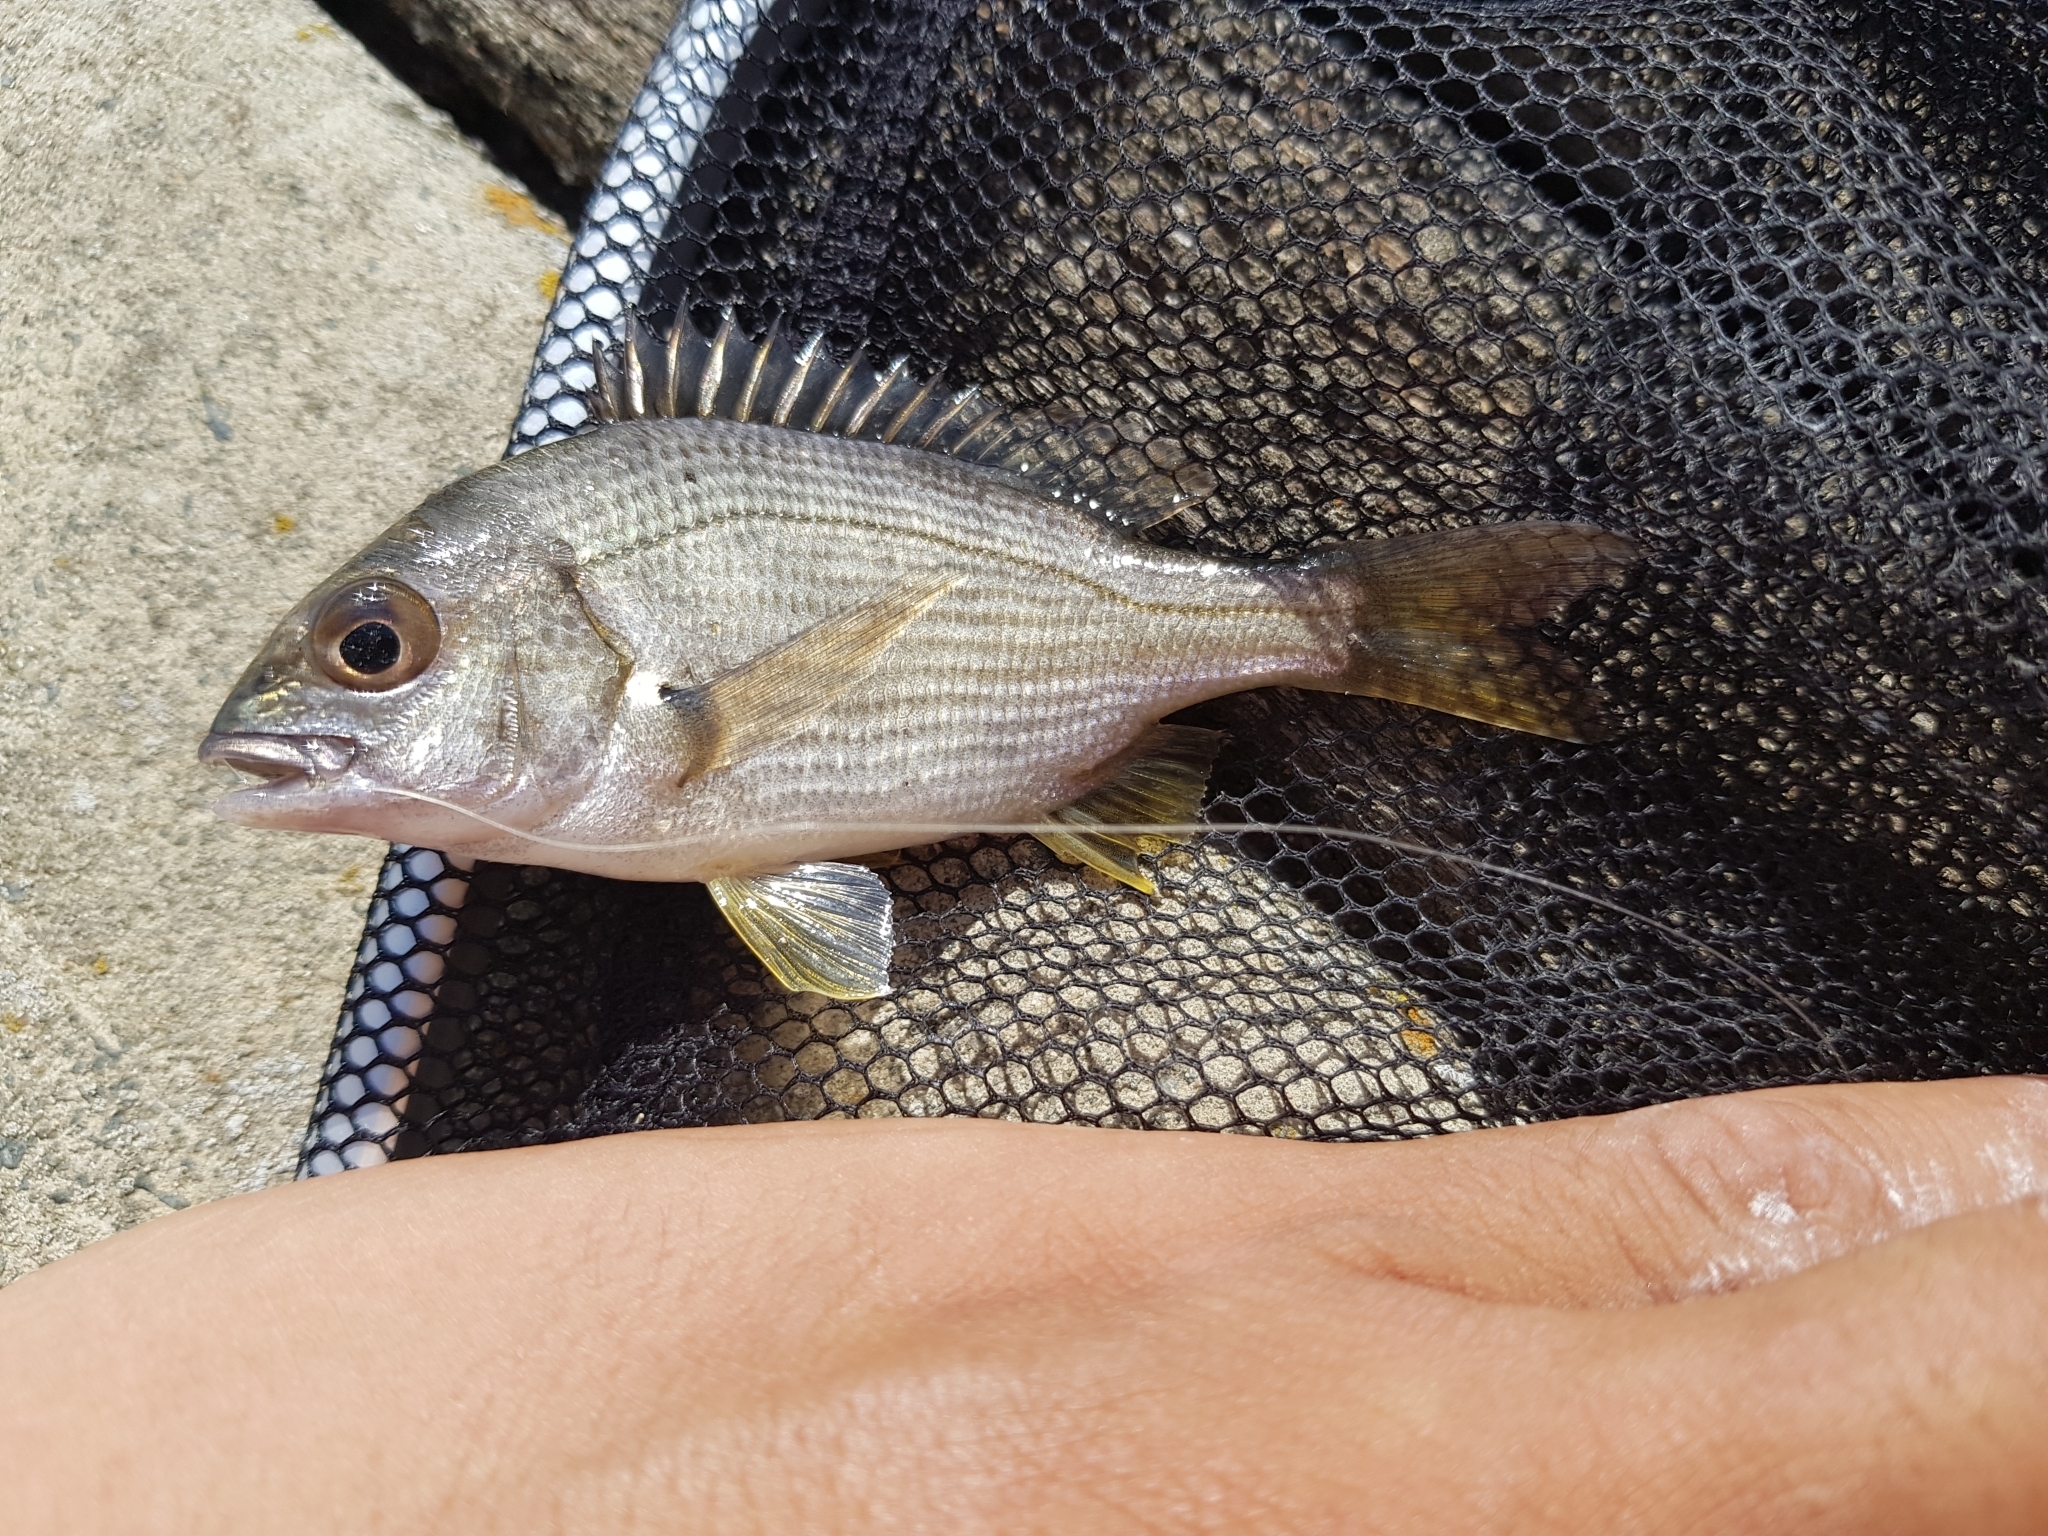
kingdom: Animalia
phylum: Chordata
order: Perciformes
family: Sparidae
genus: Acanthopagrus
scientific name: Acanthopagrus butcheri
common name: Black bream
